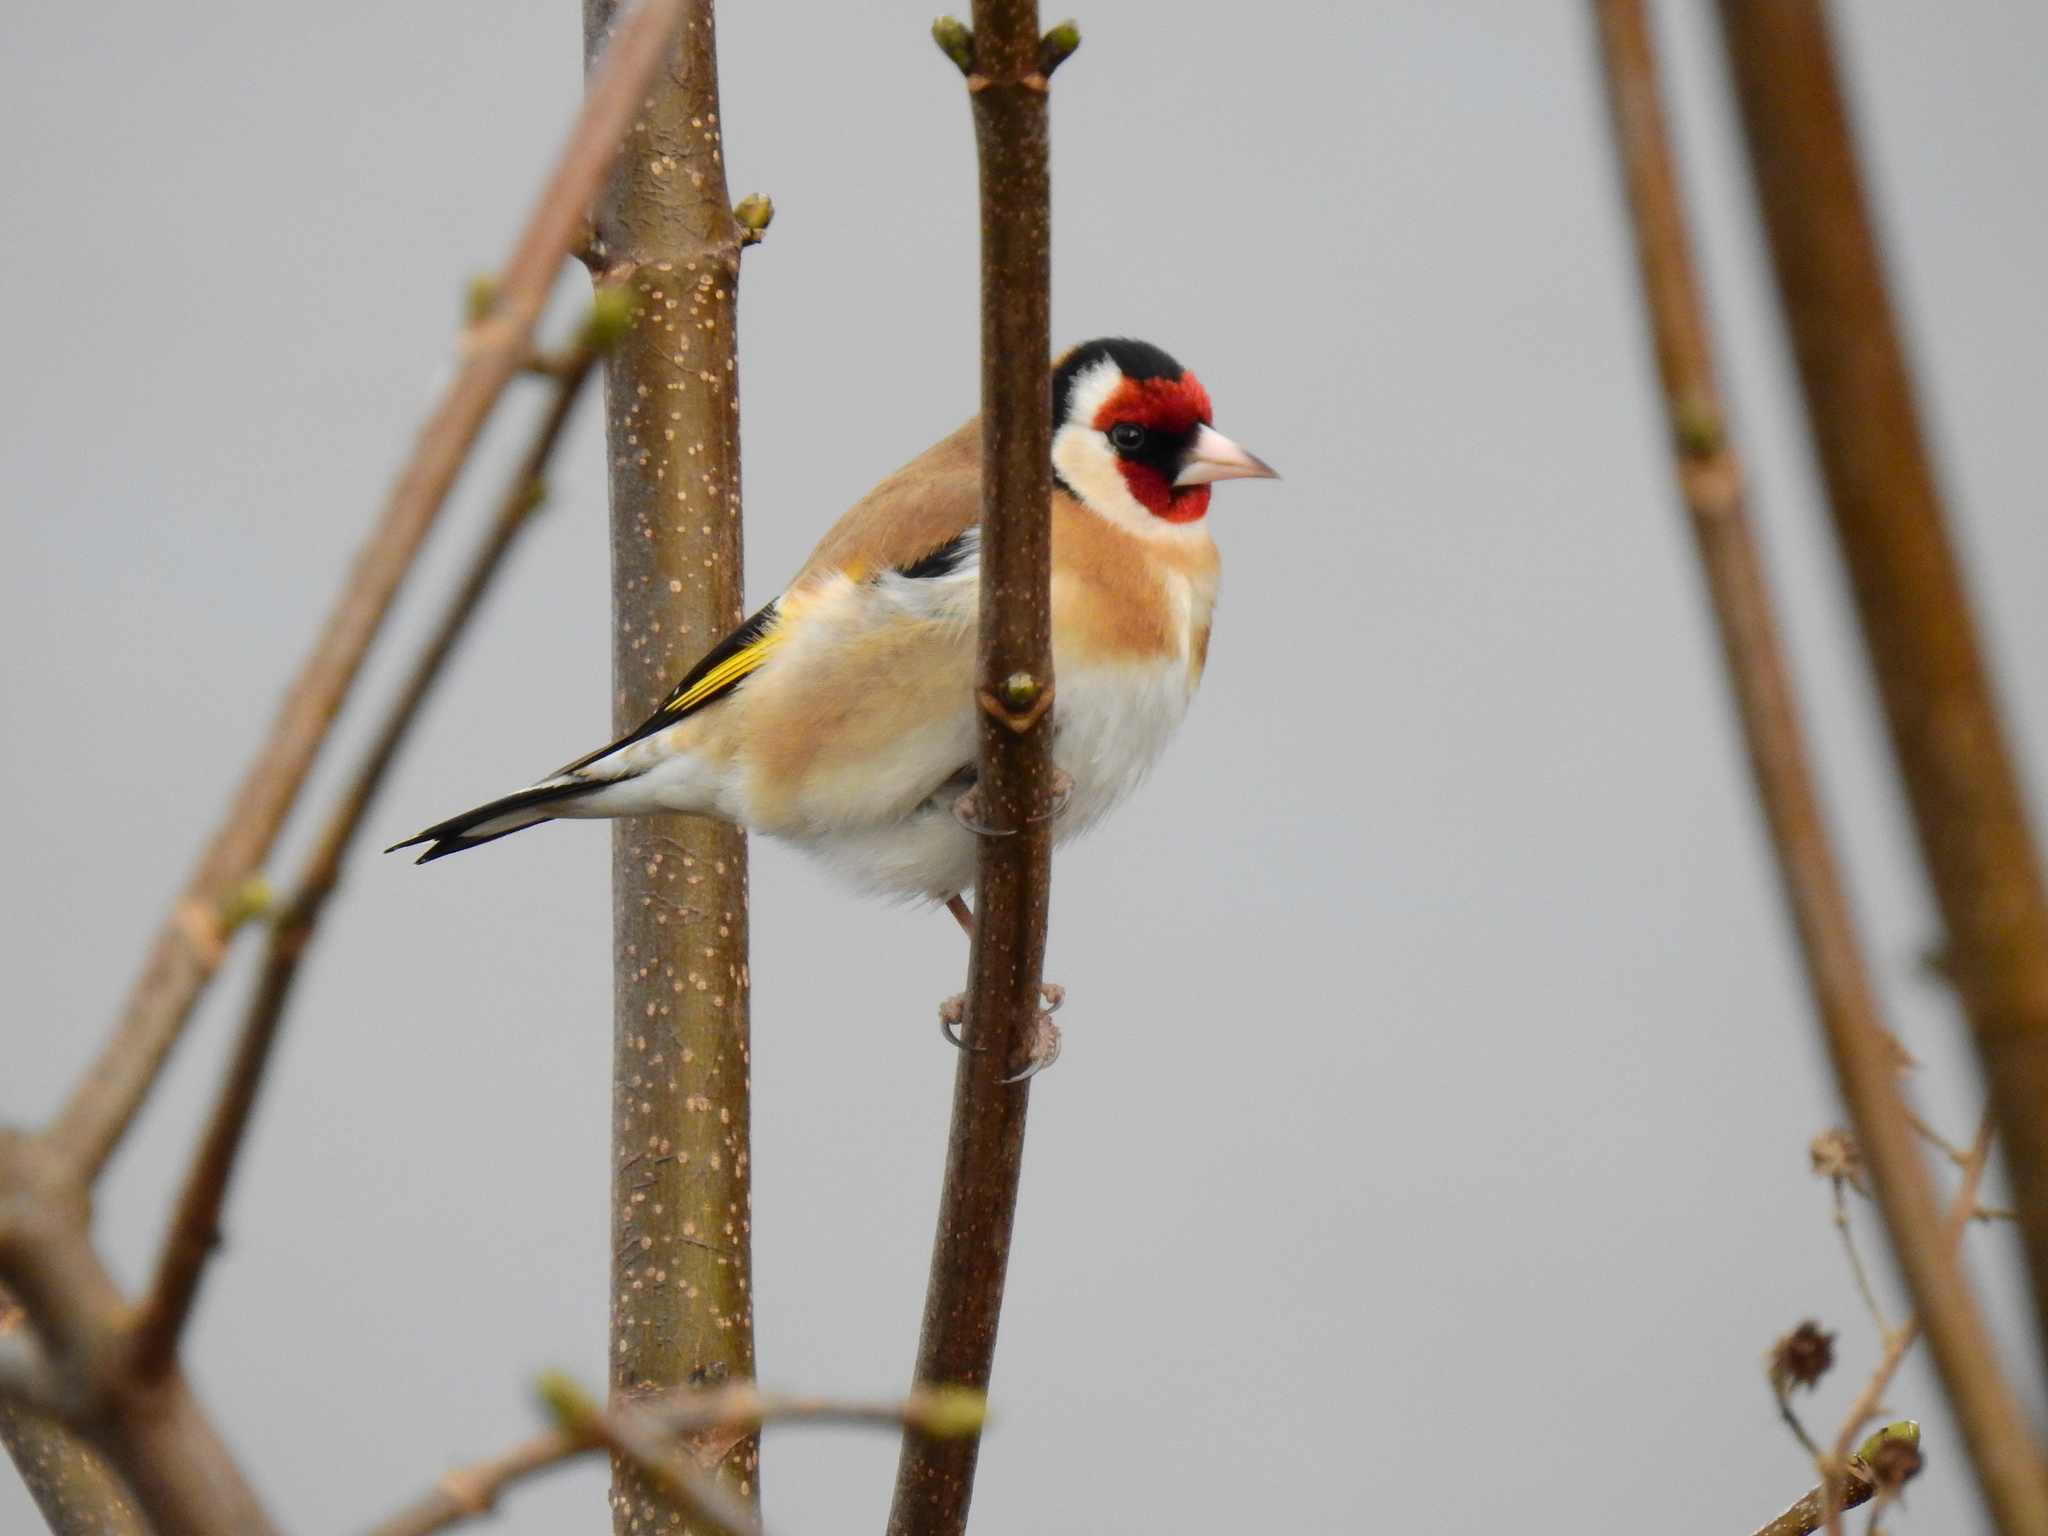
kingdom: Animalia
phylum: Chordata
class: Aves
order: Passeriformes
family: Fringillidae
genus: Carduelis
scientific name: Carduelis carduelis
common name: European goldfinch
